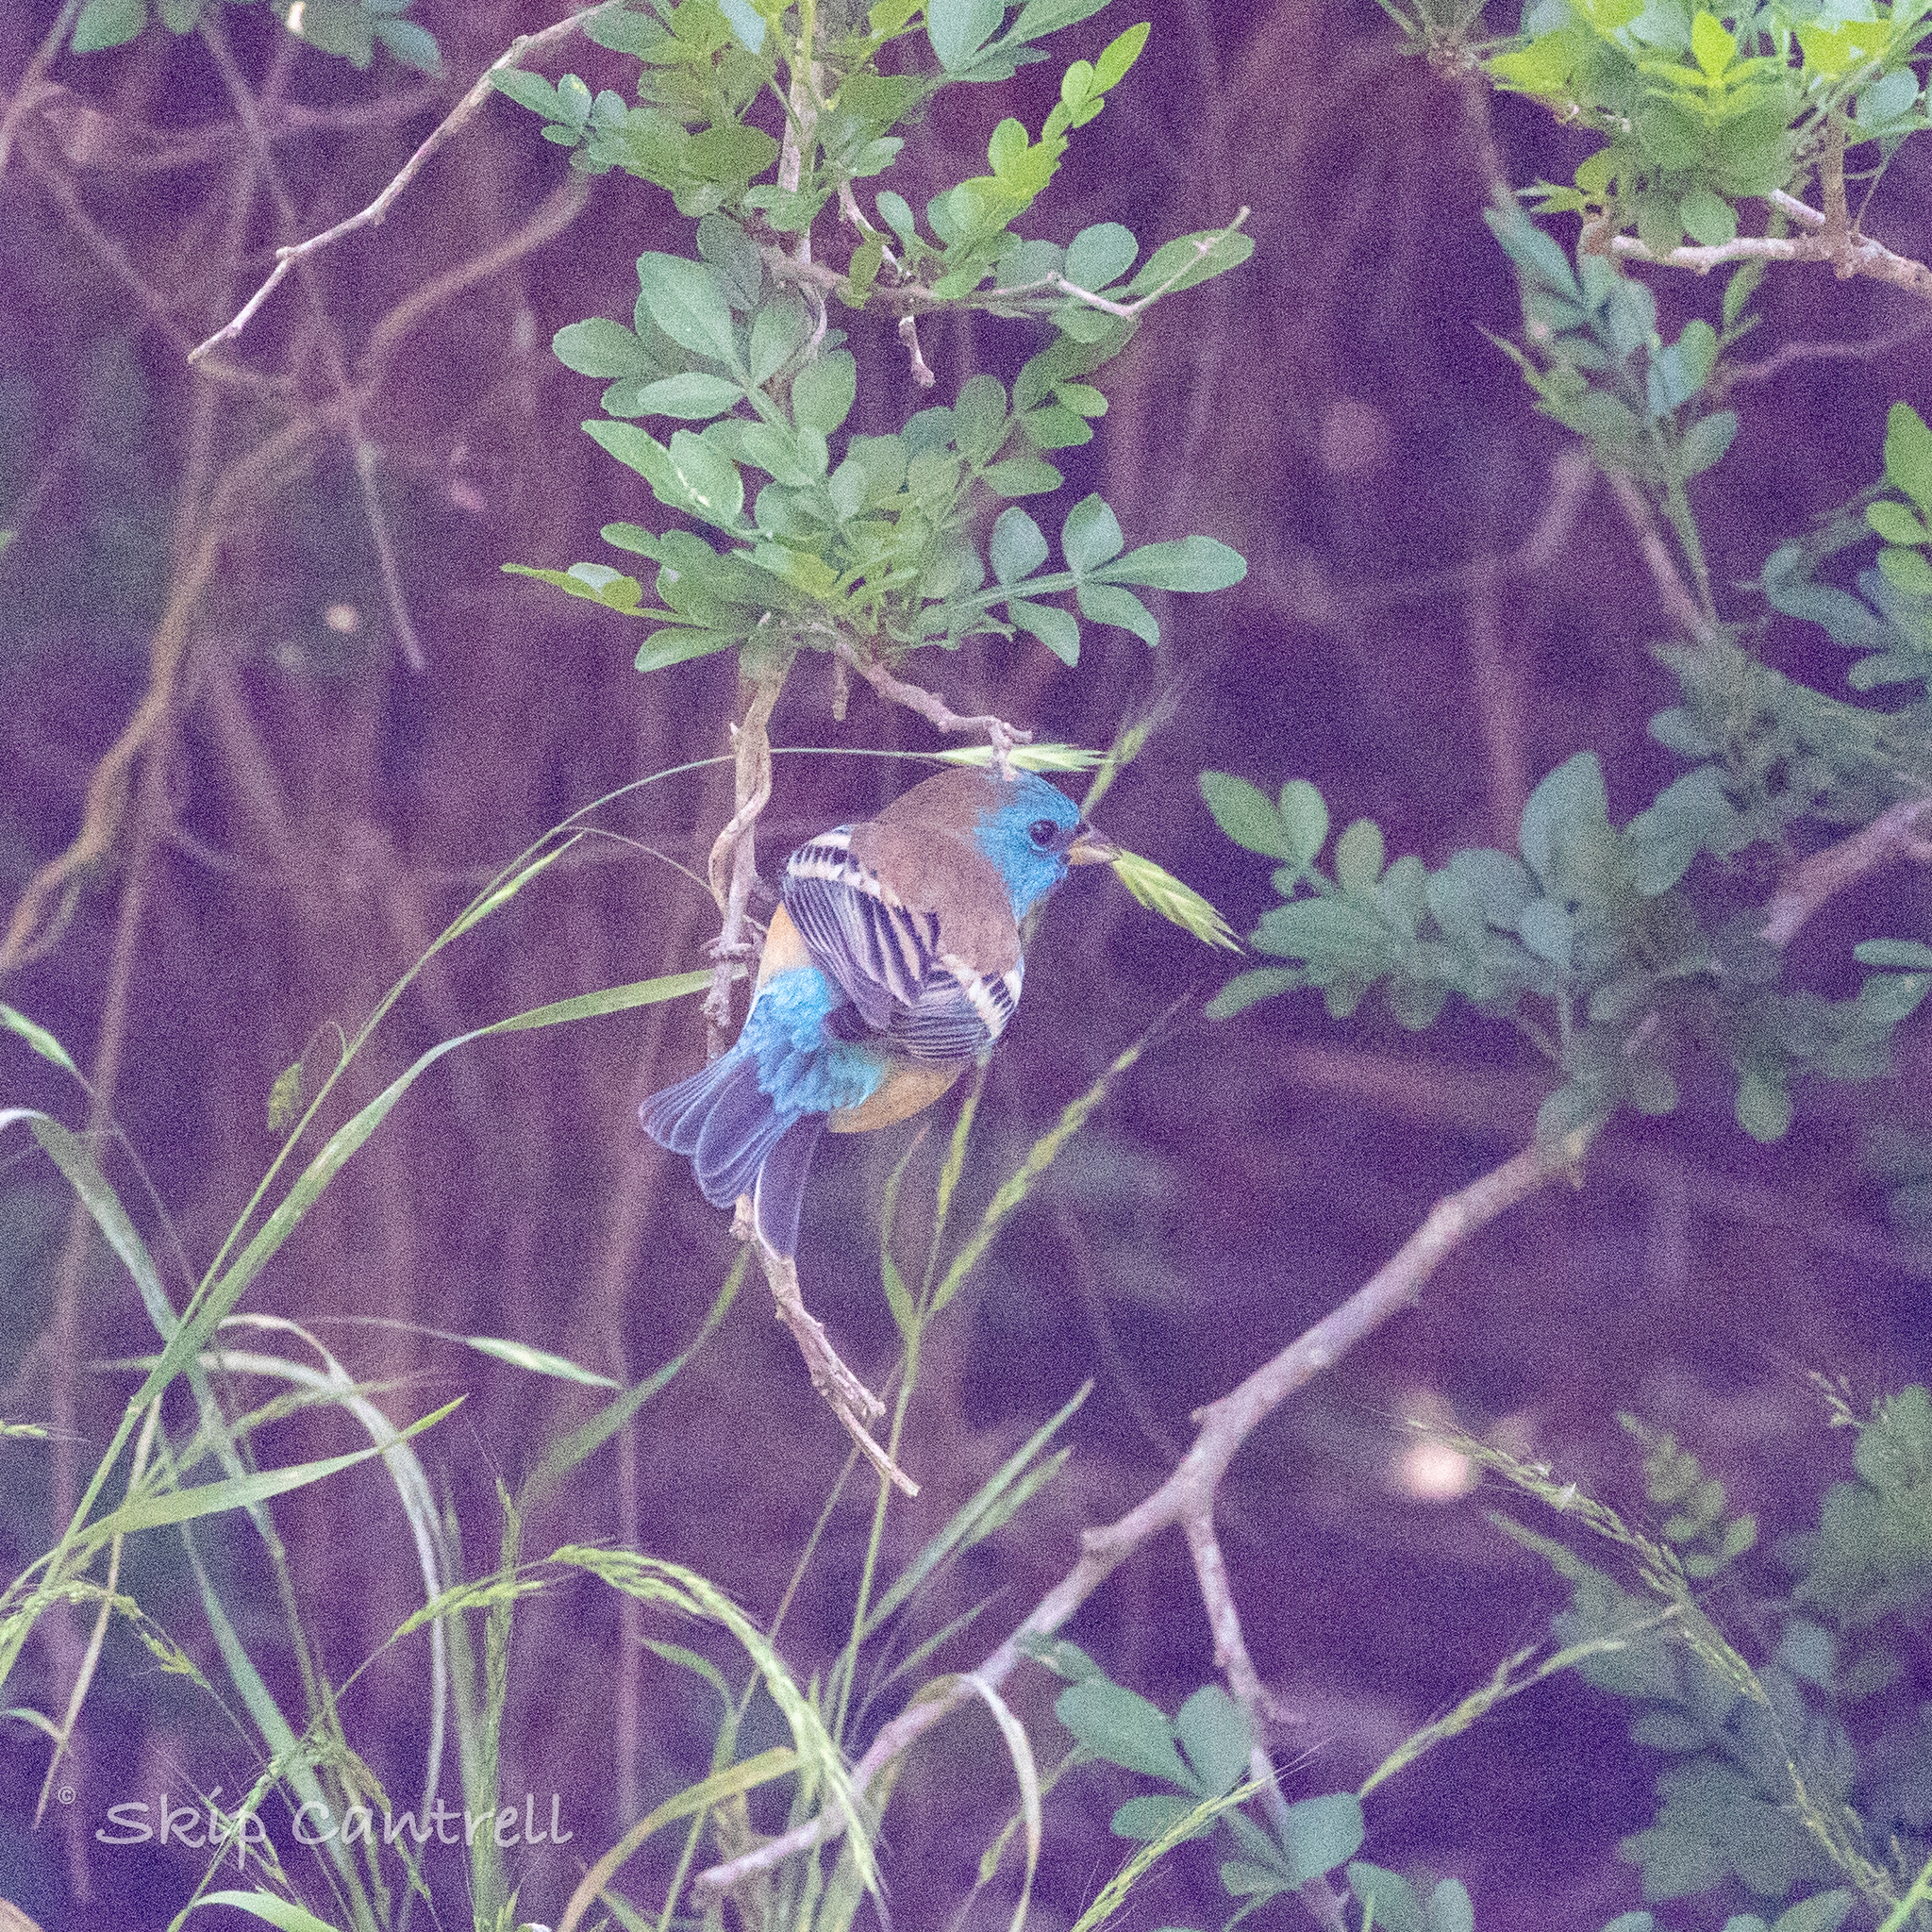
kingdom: Animalia
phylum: Chordata
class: Aves
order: Passeriformes
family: Cardinalidae
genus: Passerina
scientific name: Passerina amoena
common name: Lazuli bunting
